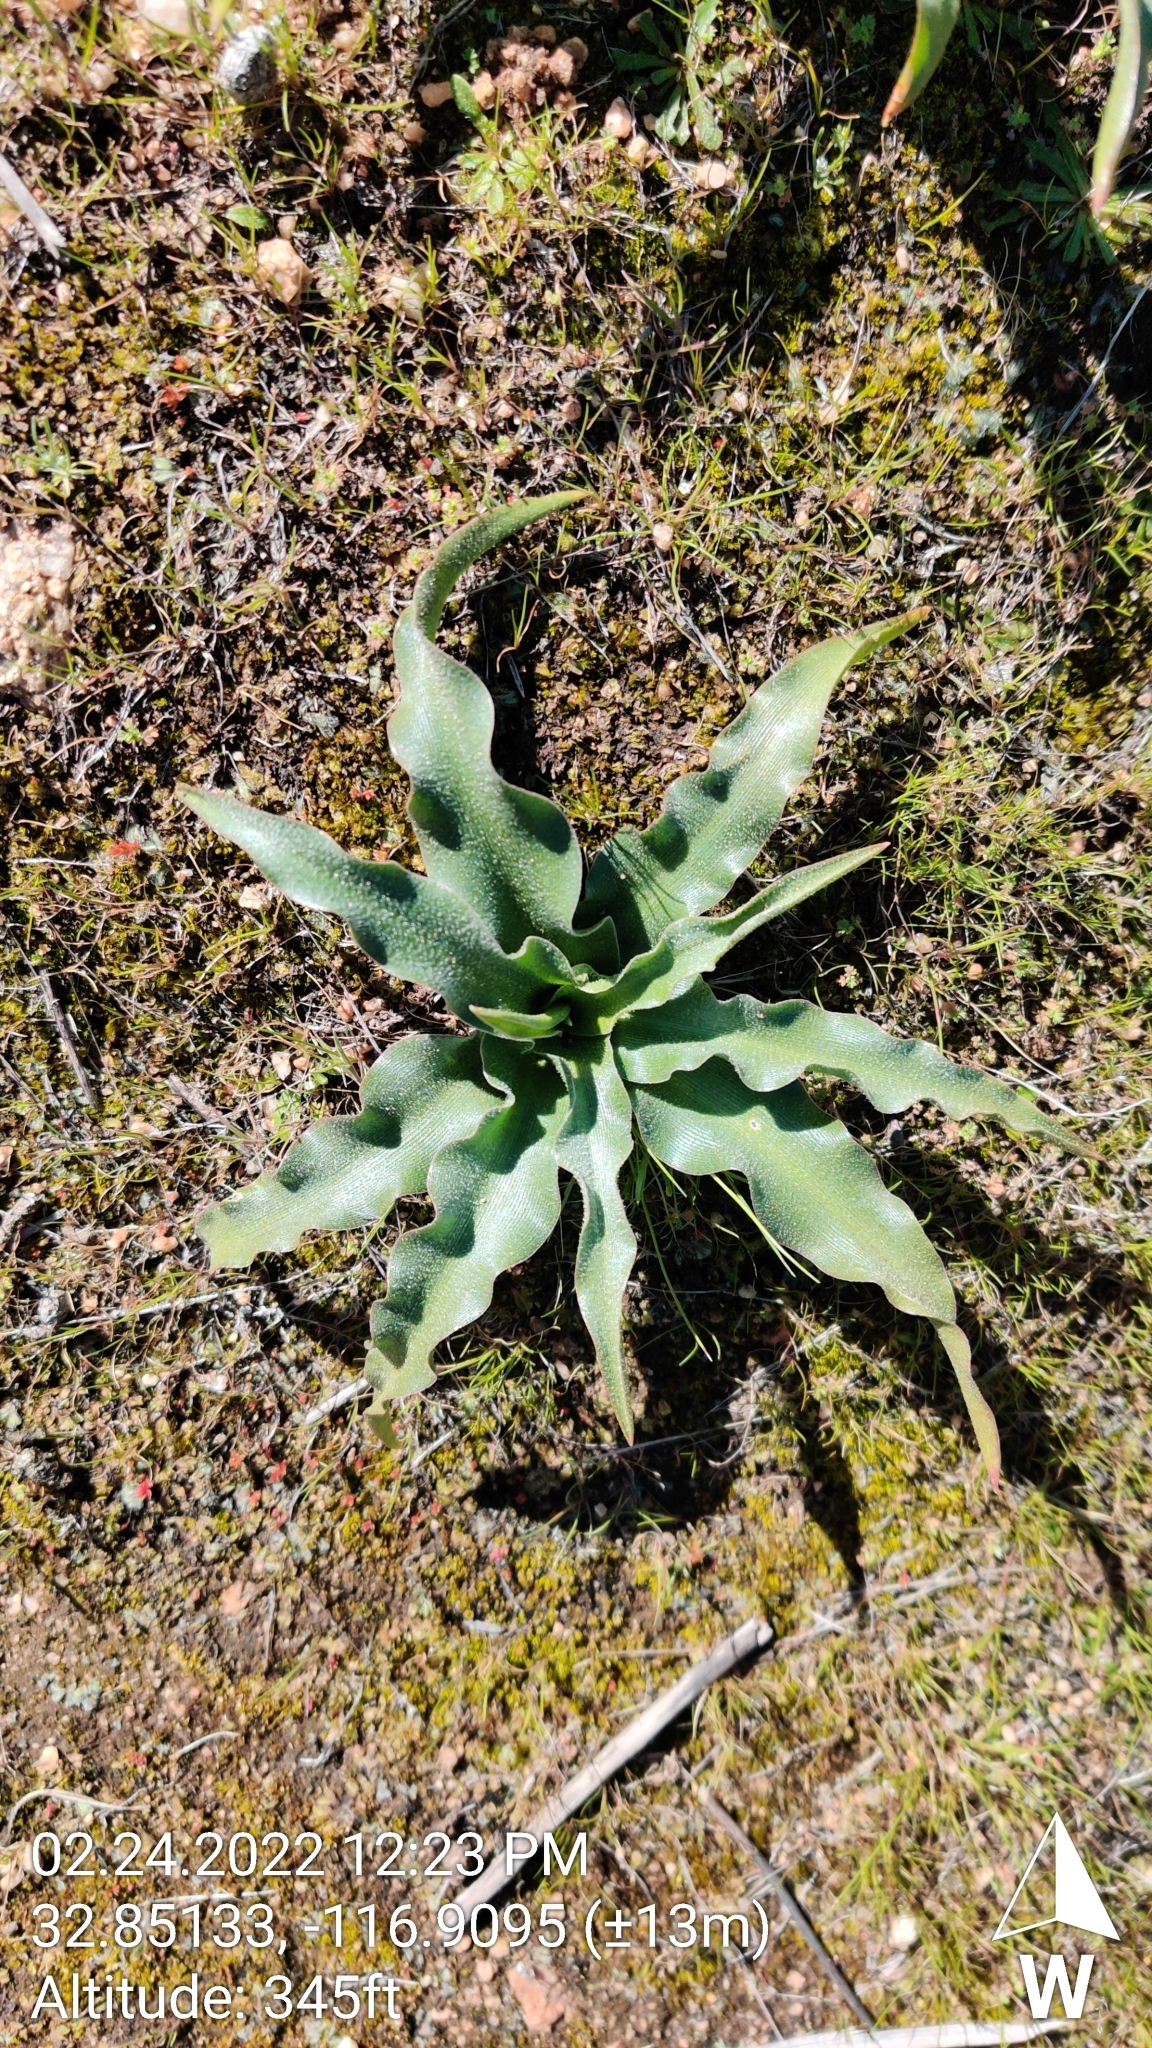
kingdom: Plantae
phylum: Tracheophyta
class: Liliopsida
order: Asparagales
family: Asparagaceae
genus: Hooveria
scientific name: Hooveria parviflora
